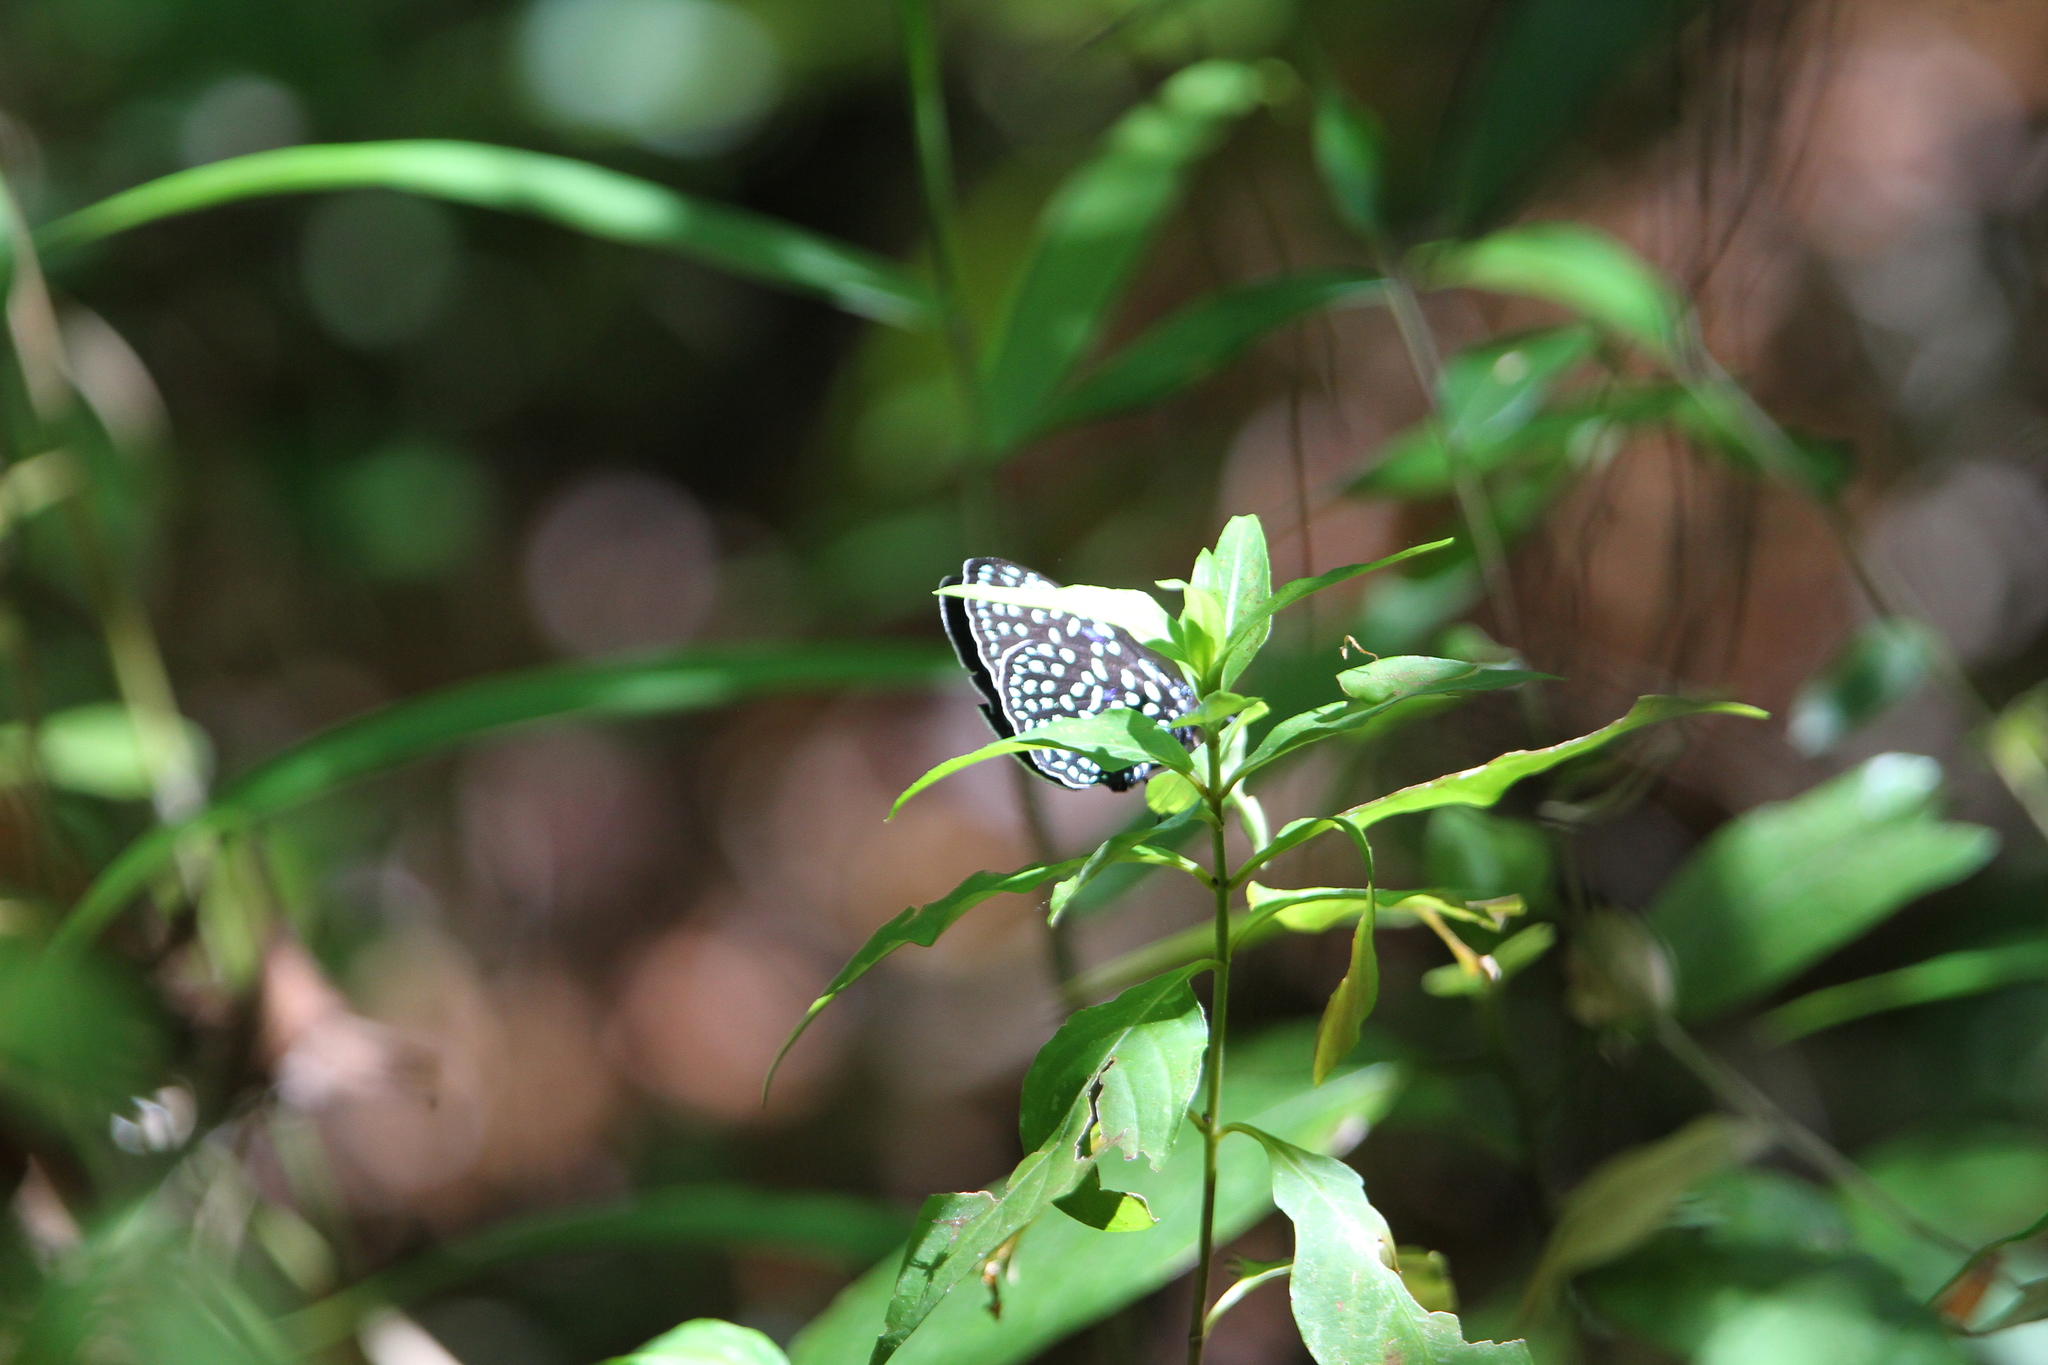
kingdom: Animalia
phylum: Arthropoda
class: Insecta
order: Lepidoptera
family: Lycaenidae
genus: Eumaeus
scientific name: Eumaeus childrenae
